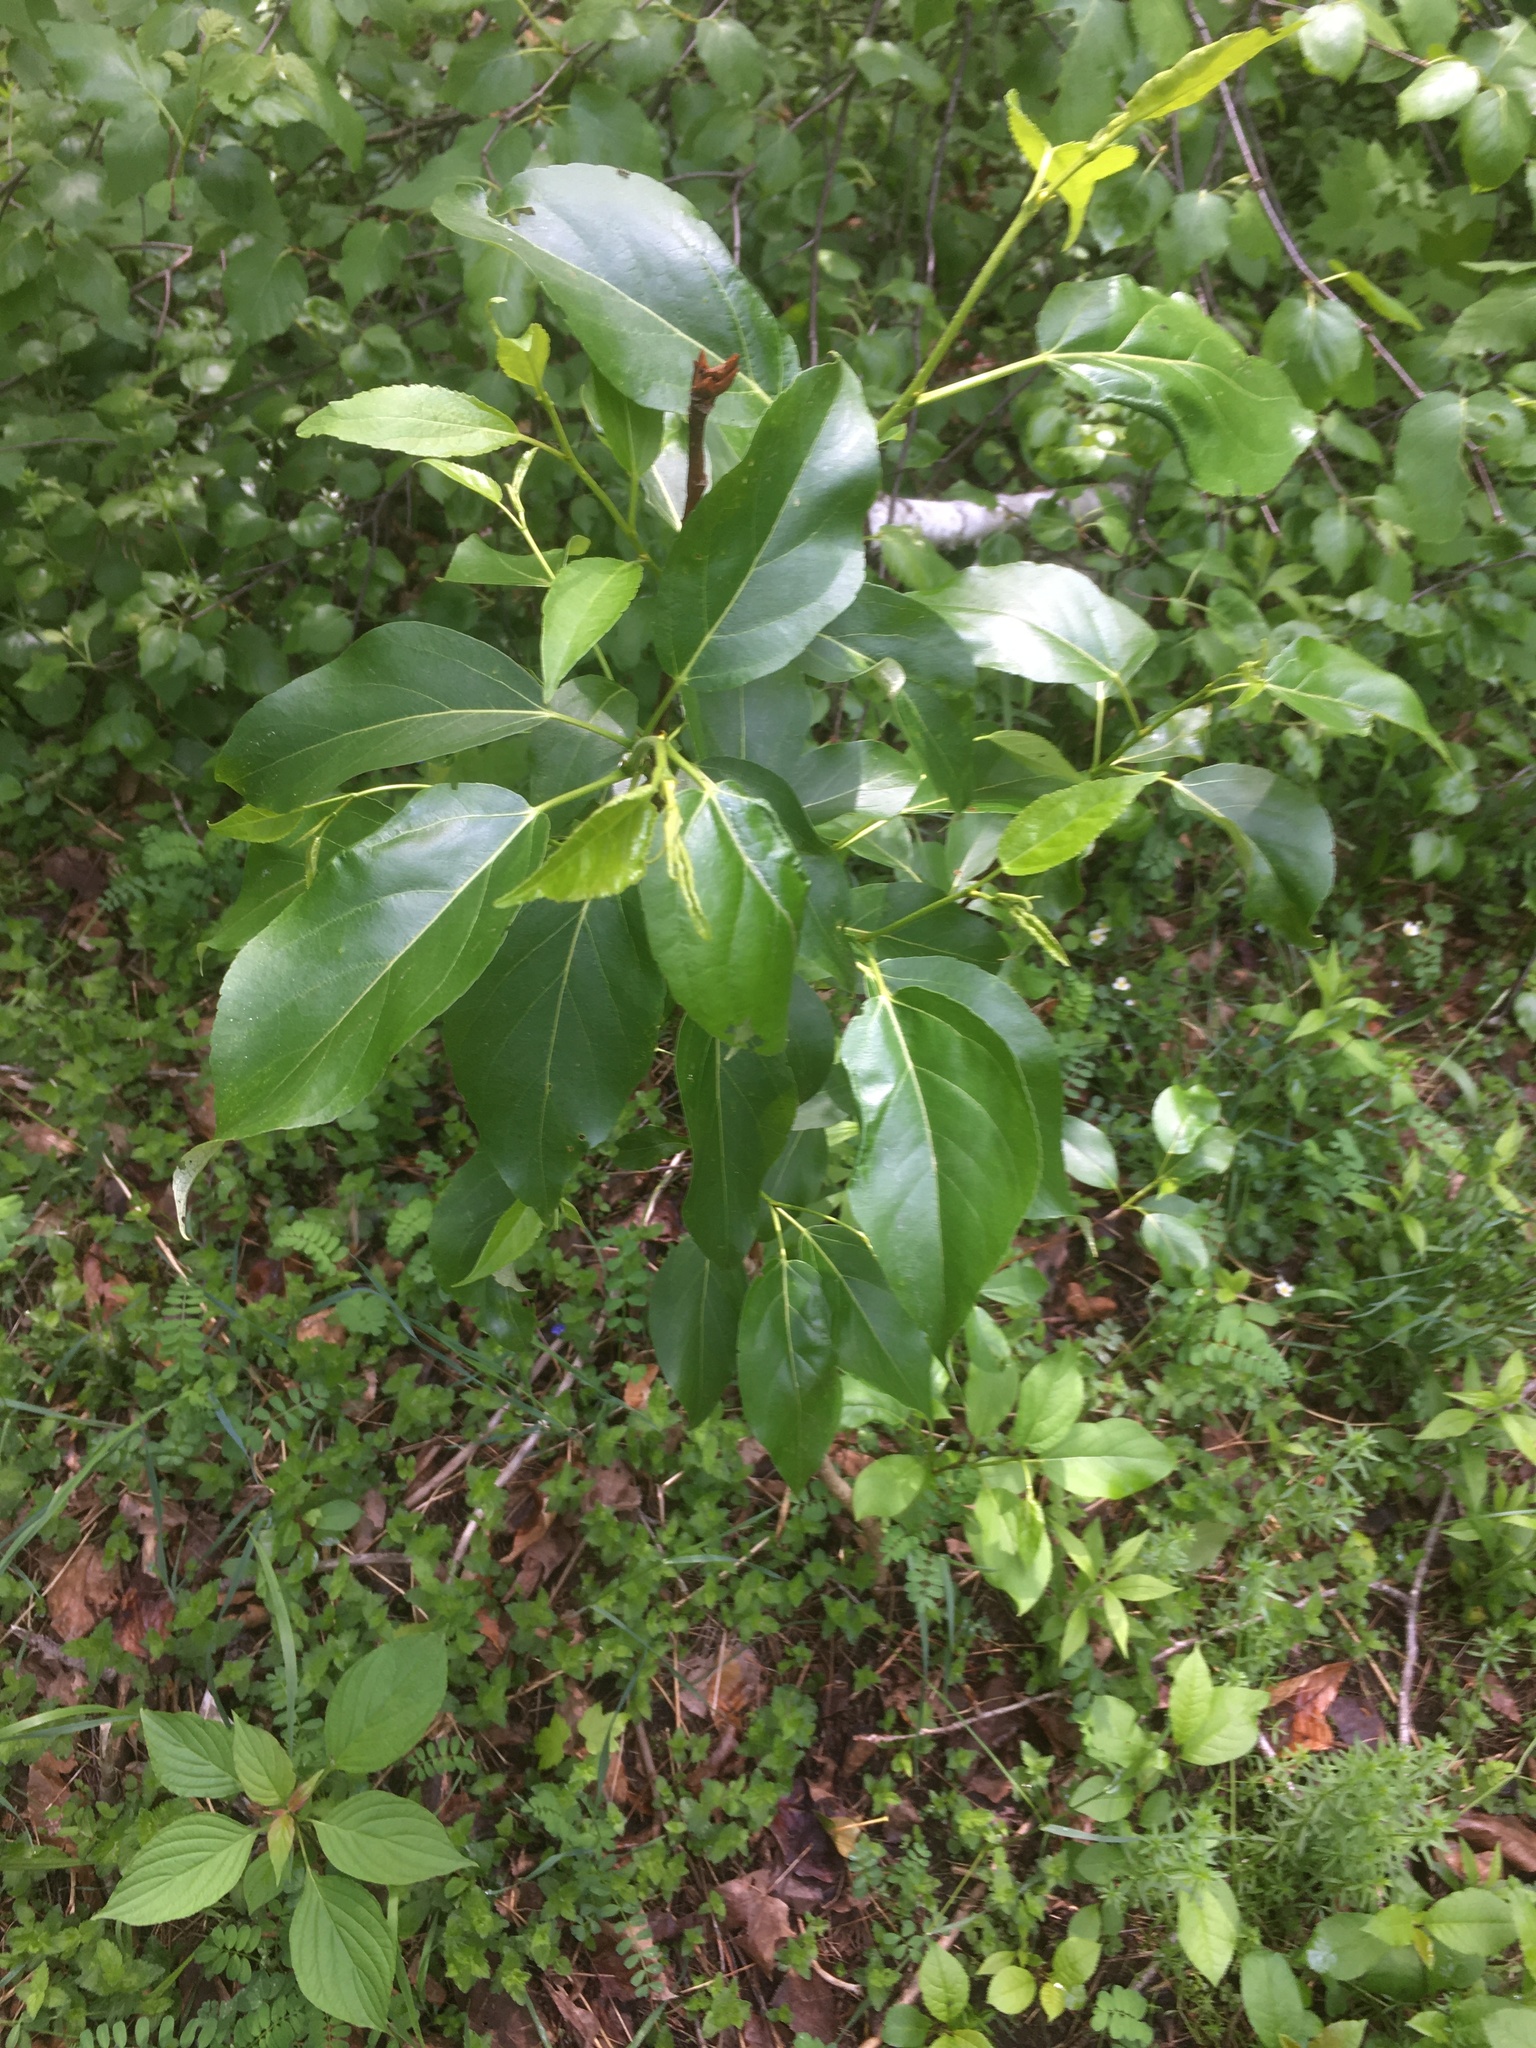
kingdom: Plantae
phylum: Tracheophyta
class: Magnoliopsida
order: Malpighiales
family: Salicaceae
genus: Populus
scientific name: Populus balsamifera
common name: Balsam poplar
